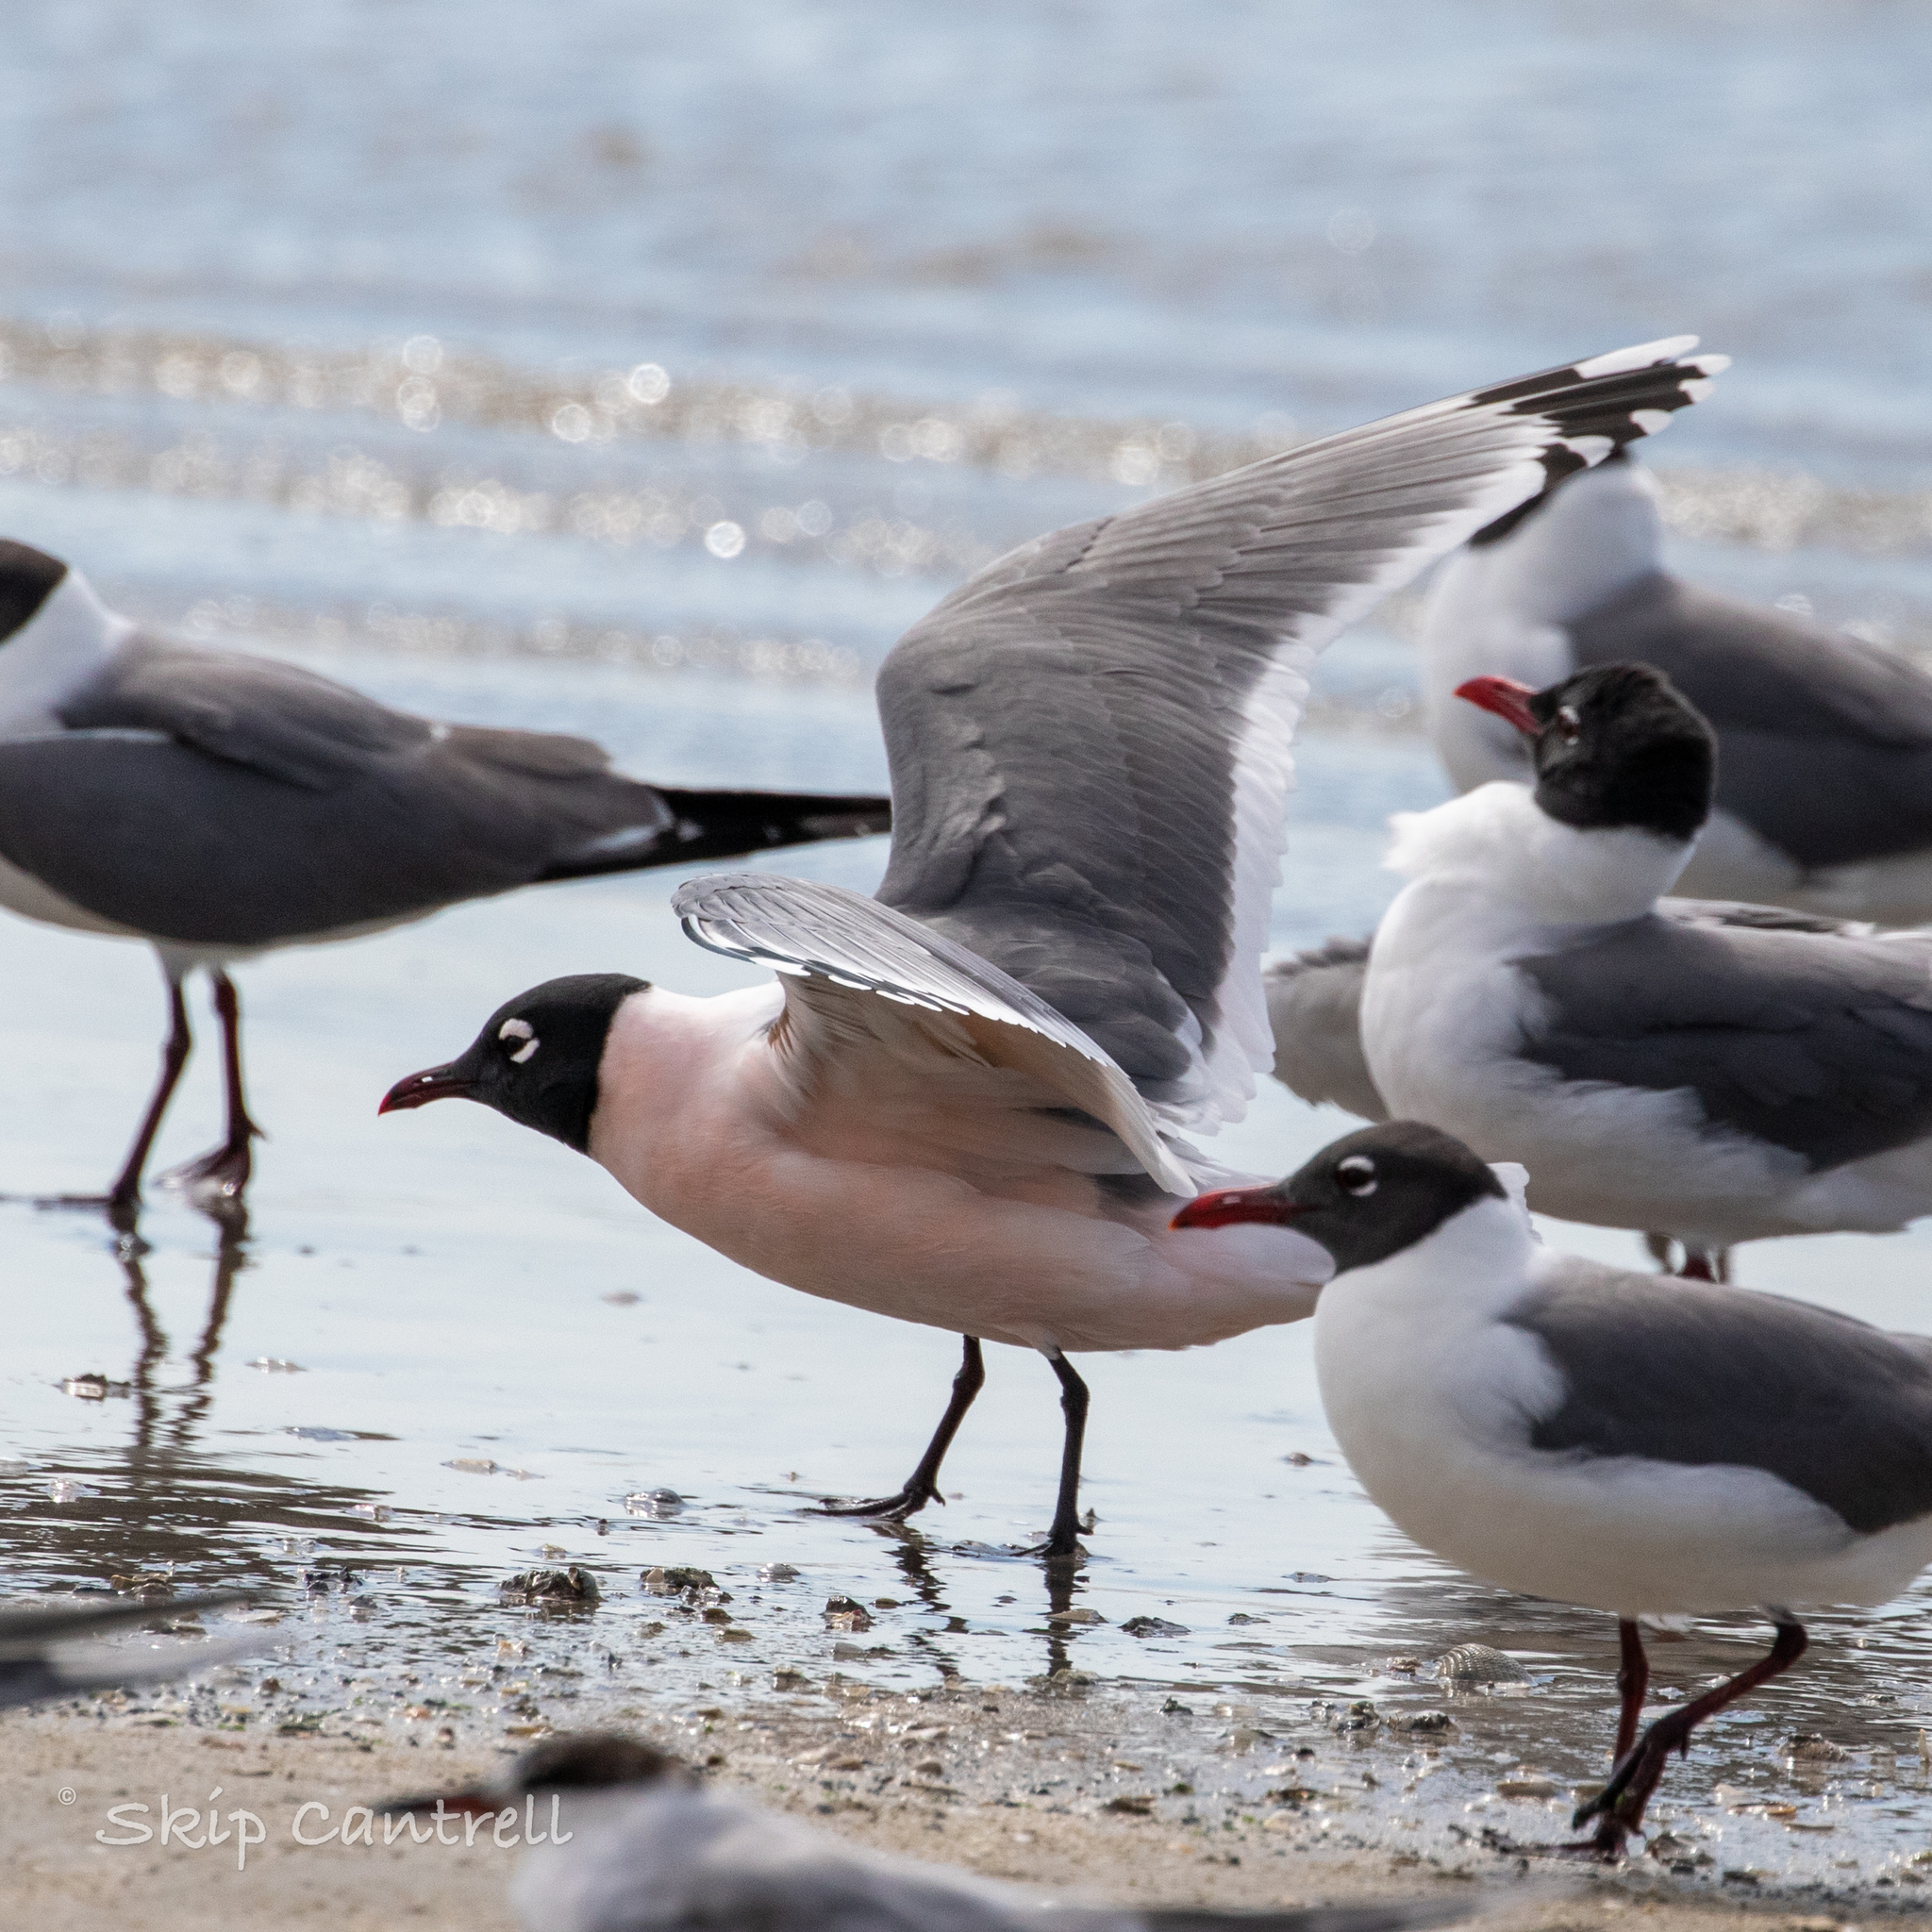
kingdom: Animalia
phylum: Chordata
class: Aves
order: Charadriiformes
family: Laridae
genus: Leucophaeus
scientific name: Leucophaeus pipixcan
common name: Franklin's gull
